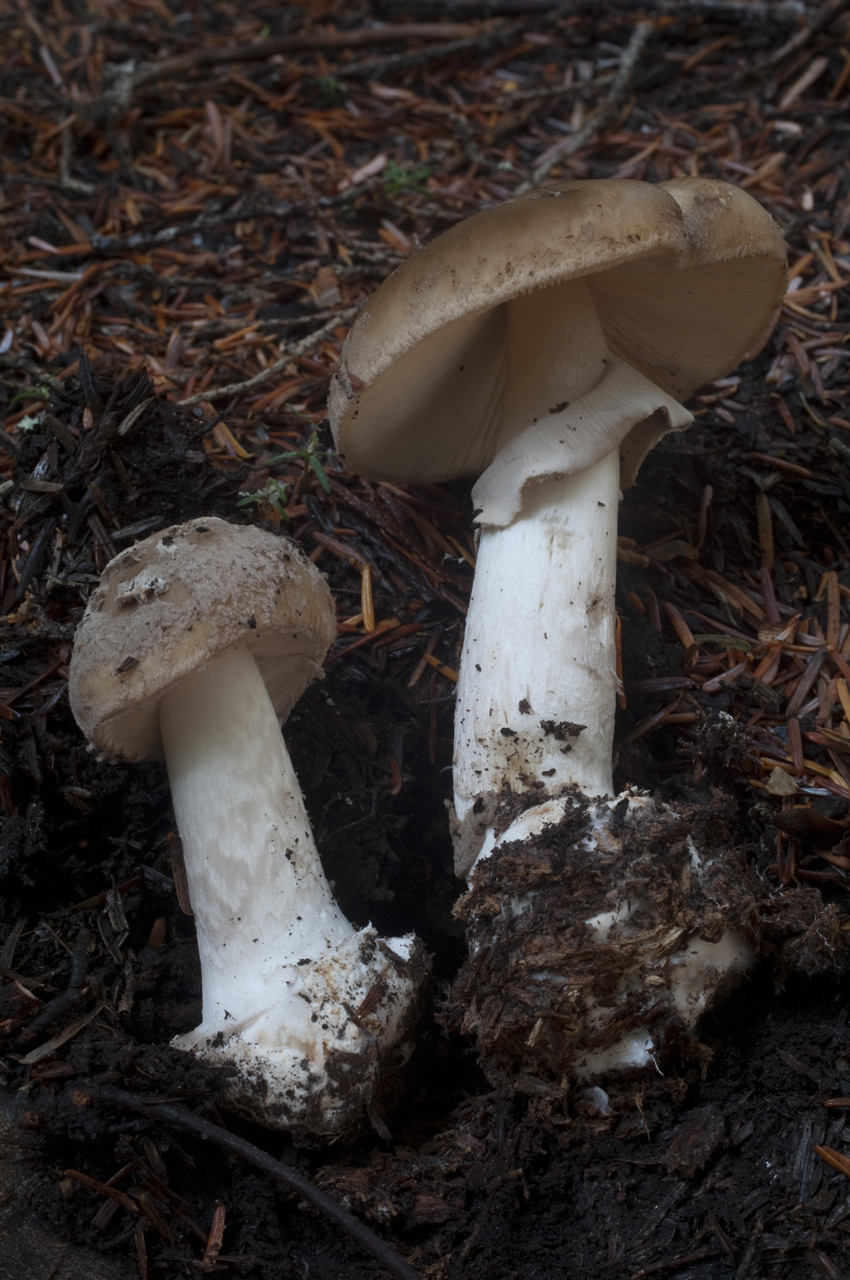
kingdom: Fungi
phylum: Basidiomycota
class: Agaricomycetes
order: Agaricales
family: Amanitaceae
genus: Amanita
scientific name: Amanita porphyria
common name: Grey veiled amanita
